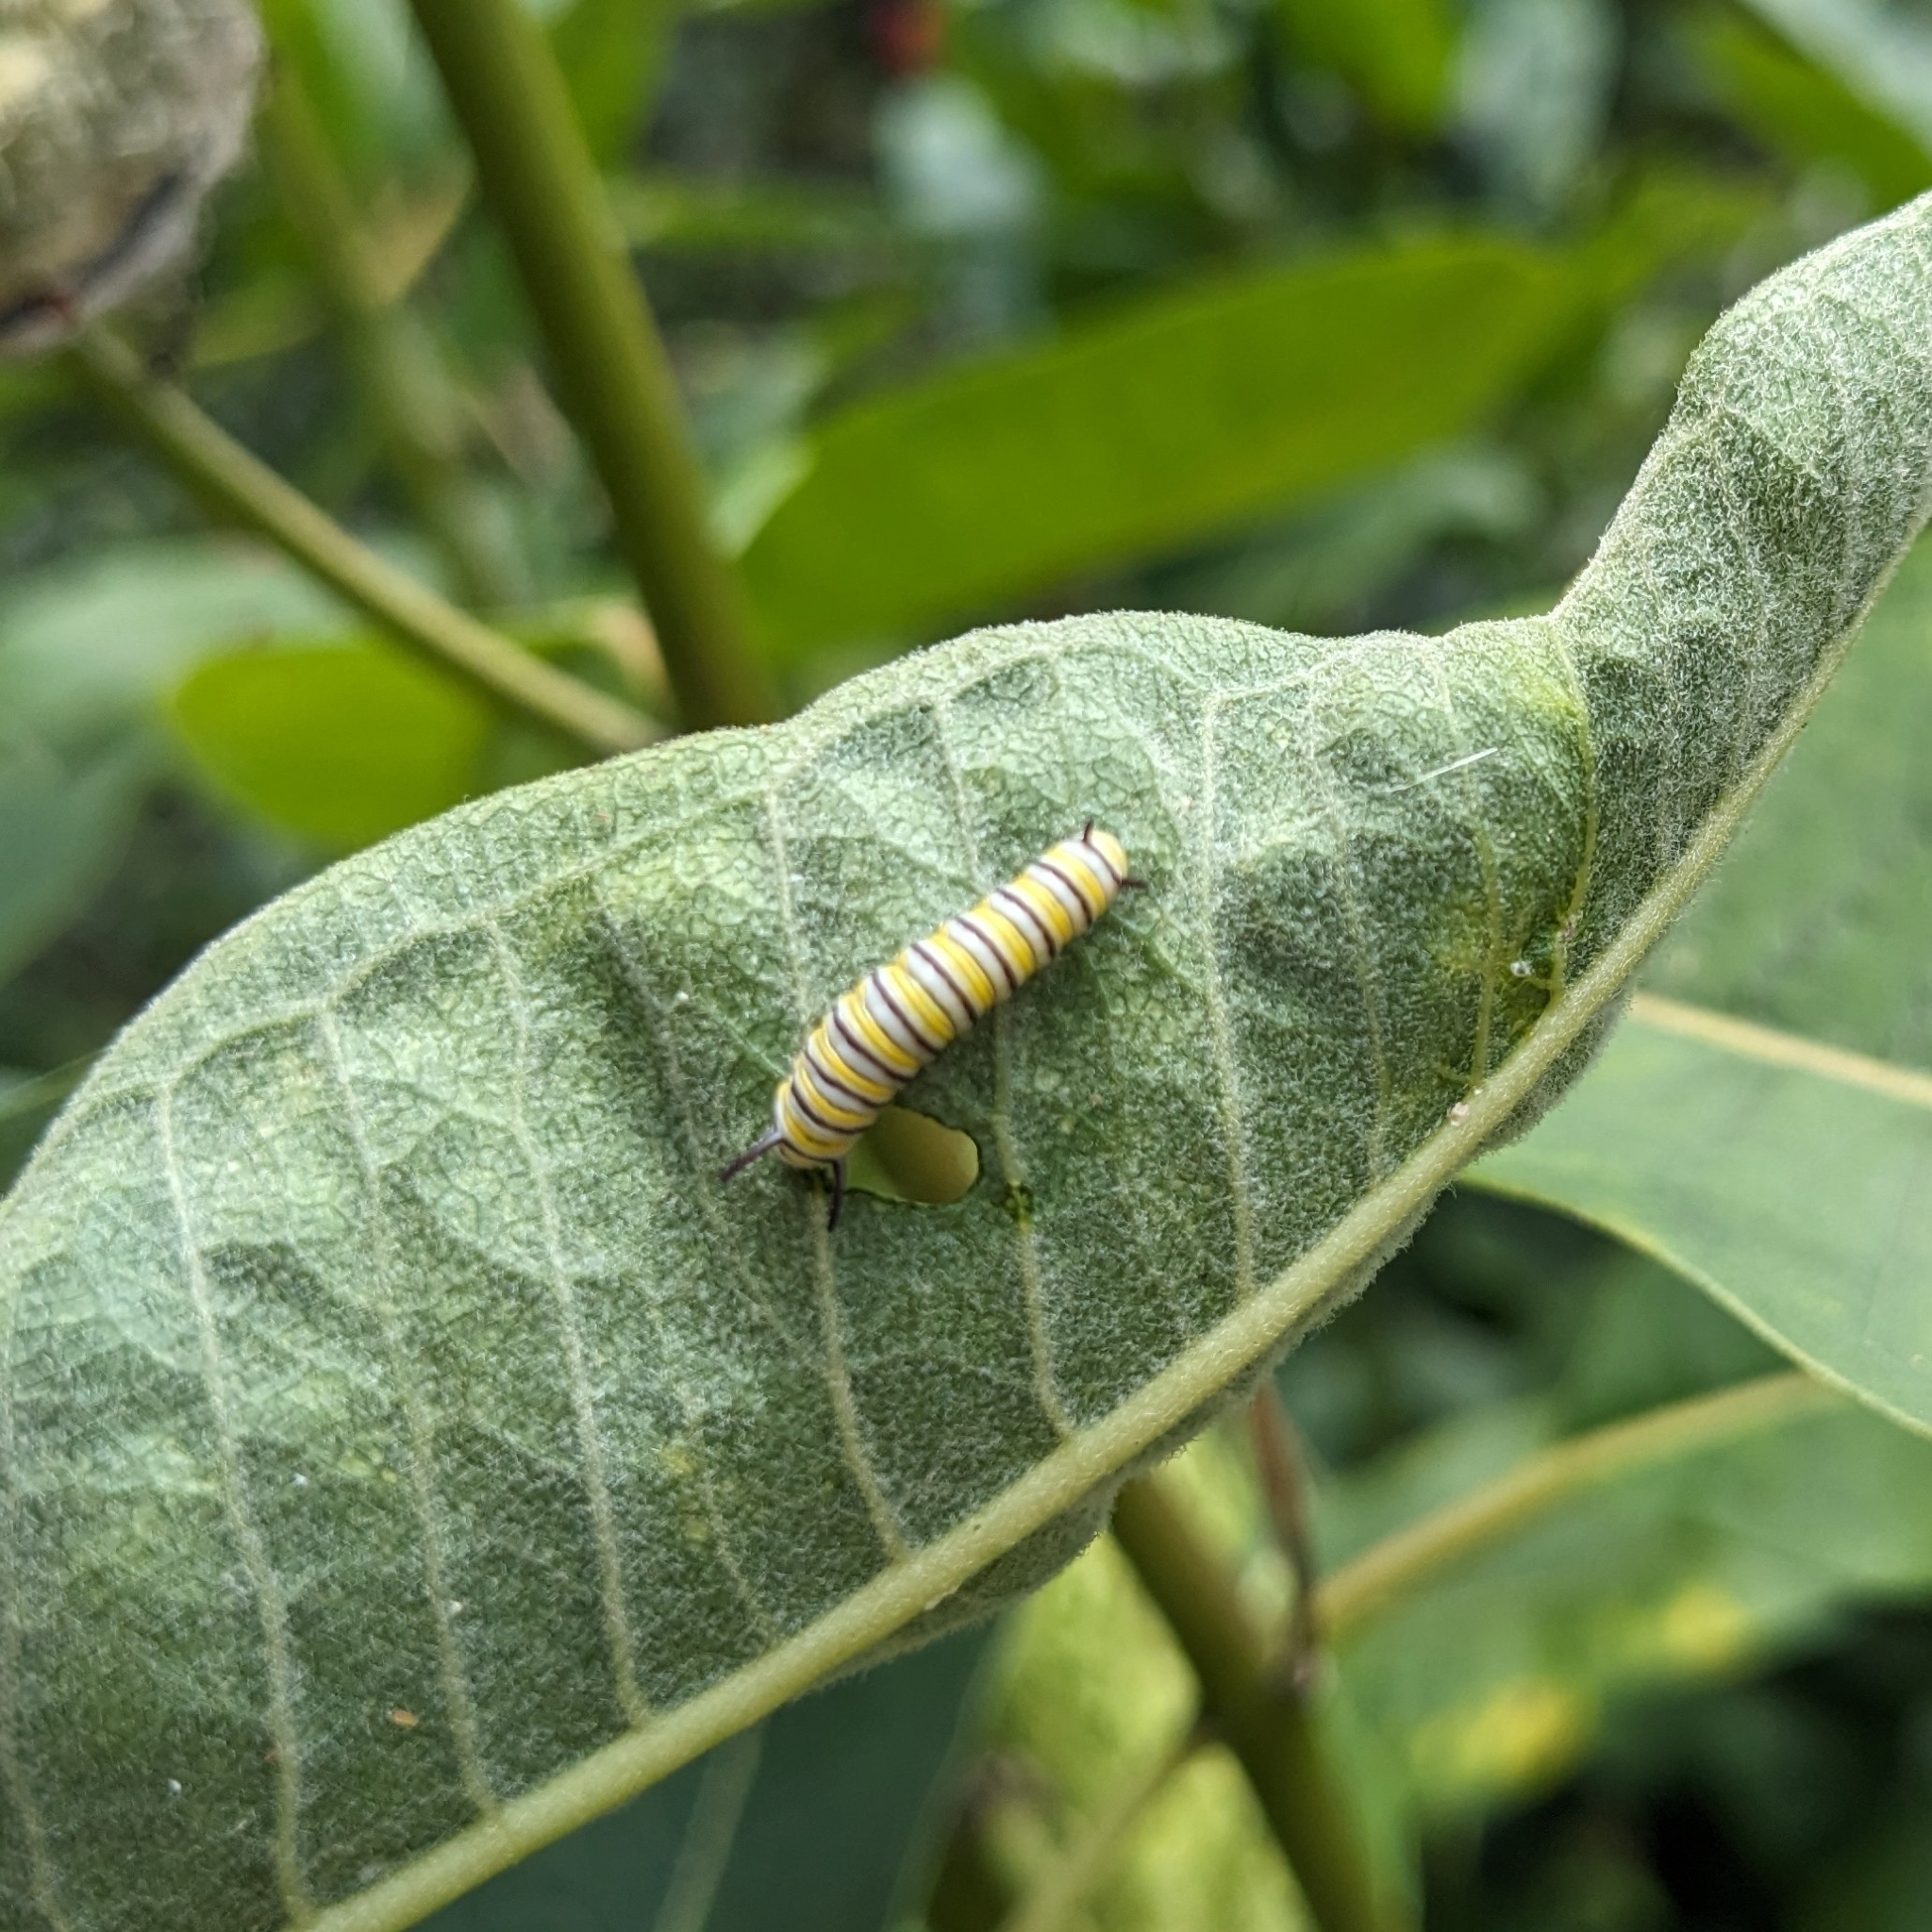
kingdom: Animalia
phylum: Arthropoda
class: Insecta
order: Lepidoptera
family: Nymphalidae
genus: Danaus
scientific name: Danaus plexippus
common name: Monarch
